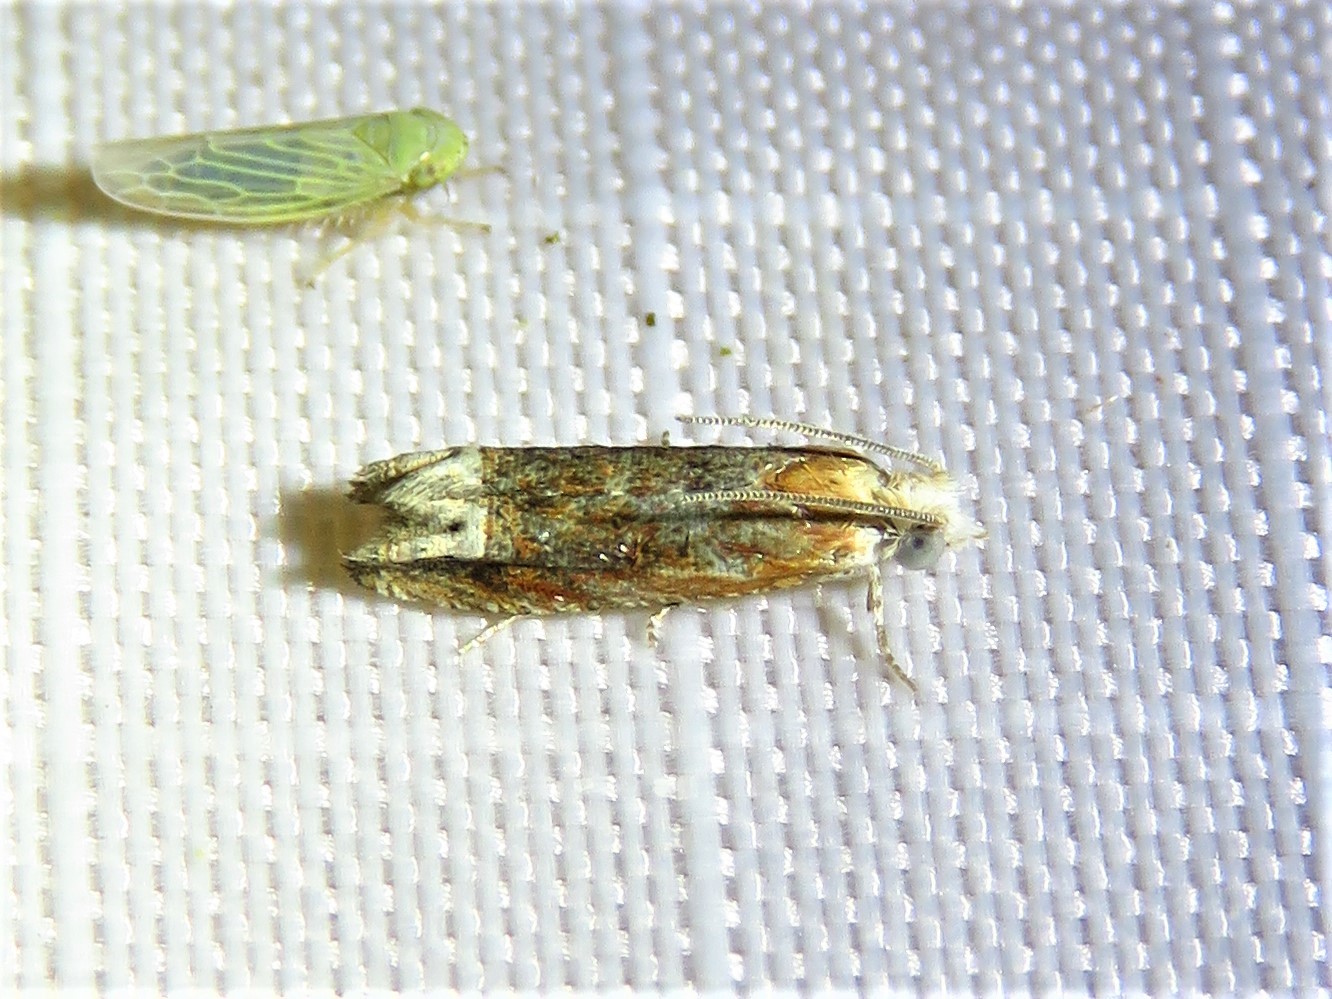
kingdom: Animalia
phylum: Arthropoda
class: Insecta
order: Lepidoptera
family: Tortricidae
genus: Eucosma
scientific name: Eucosma raracana
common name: Reddish eucosma moth
